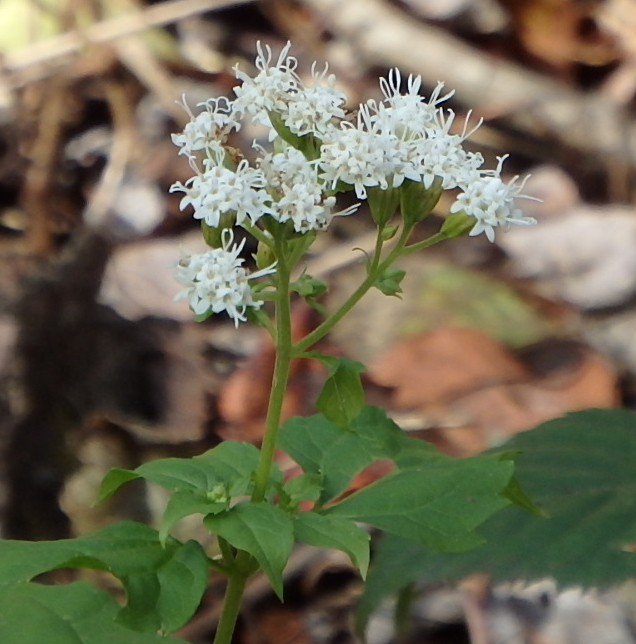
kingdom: Plantae
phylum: Tracheophyta
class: Magnoliopsida
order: Asterales
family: Asteraceae
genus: Ageratina
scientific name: Ageratina altissima
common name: White snakeroot
